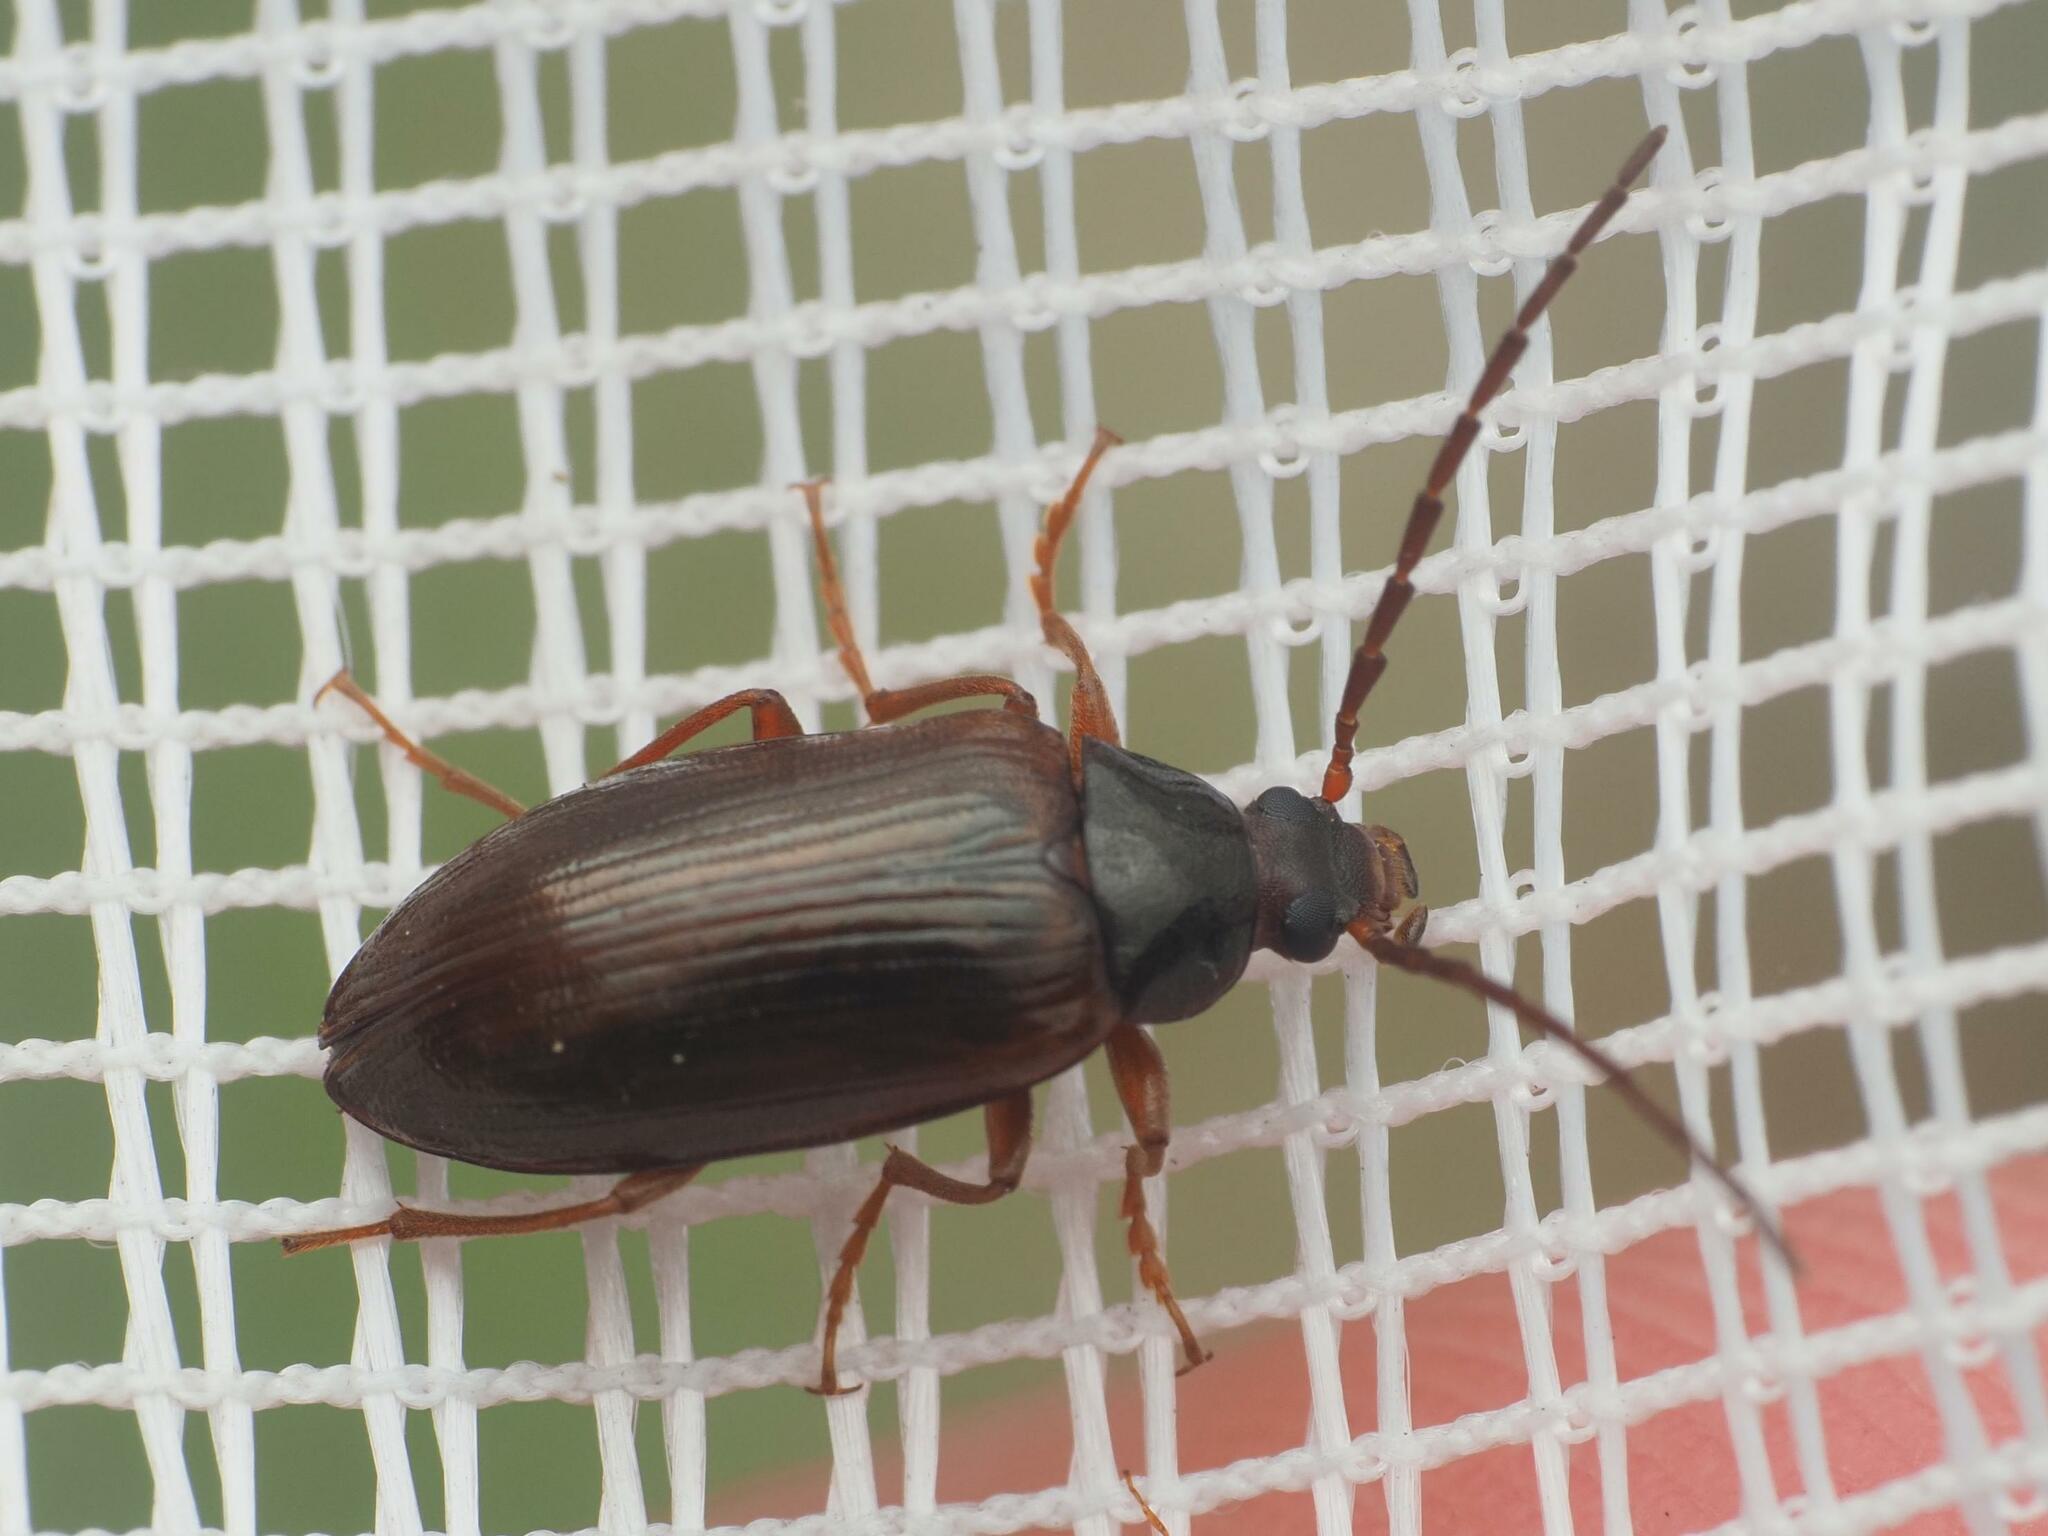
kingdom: Animalia
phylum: Arthropoda
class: Insecta
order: Coleoptera
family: Tenebrionidae
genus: Gonodera
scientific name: Gonodera luperus
